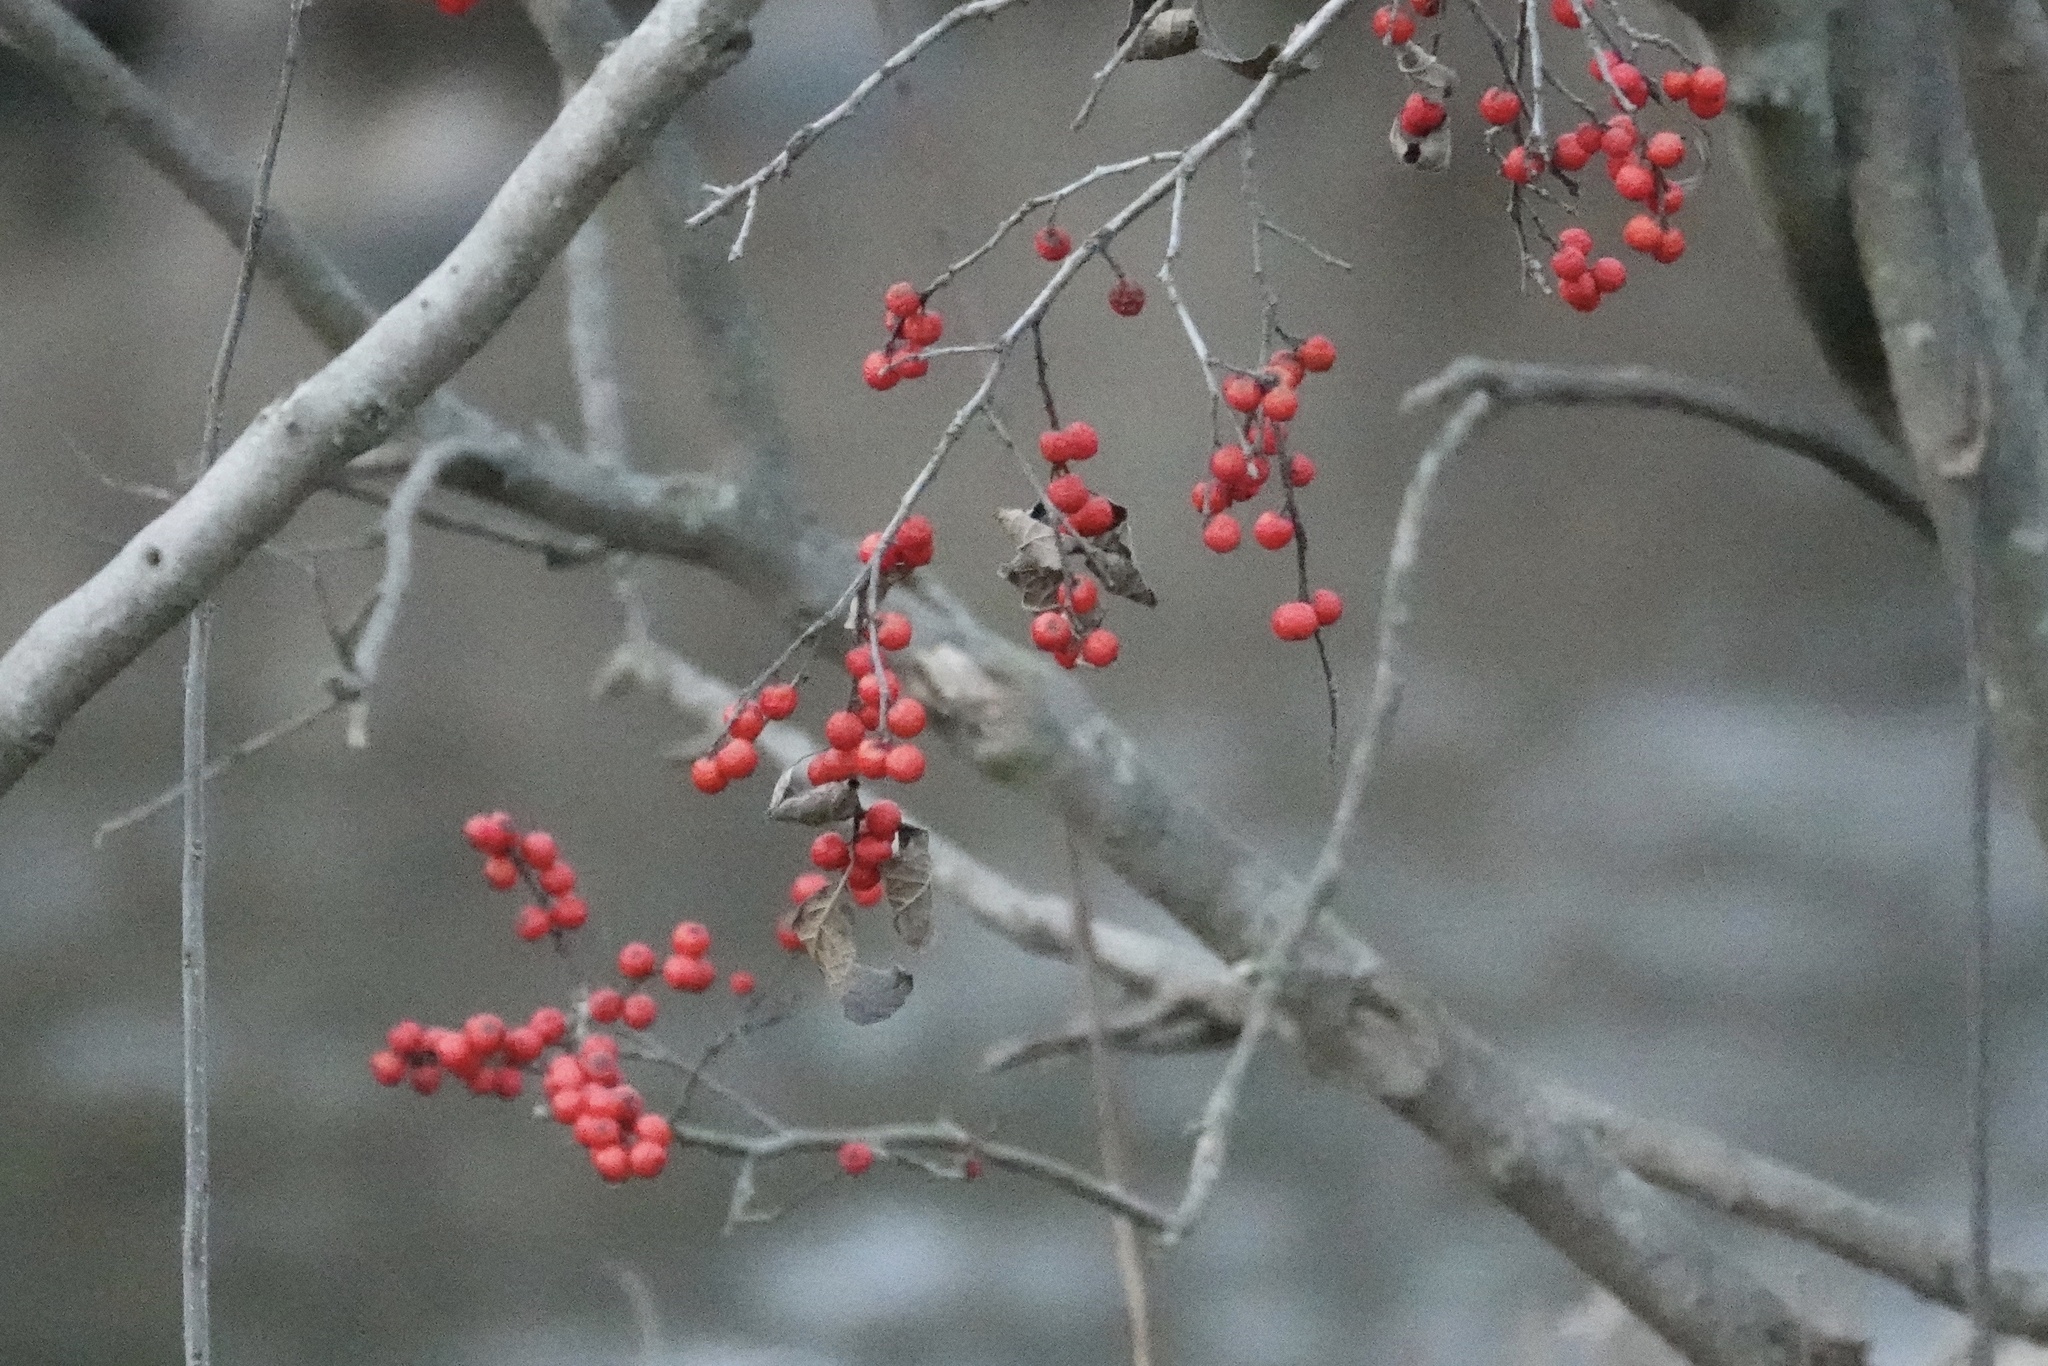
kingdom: Plantae
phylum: Tracheophyta
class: Magnoliopsida
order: Aquifoliales
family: Aquifoliaceae
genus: Ilex
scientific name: Ilex verticillata
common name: Virginia winterberry
